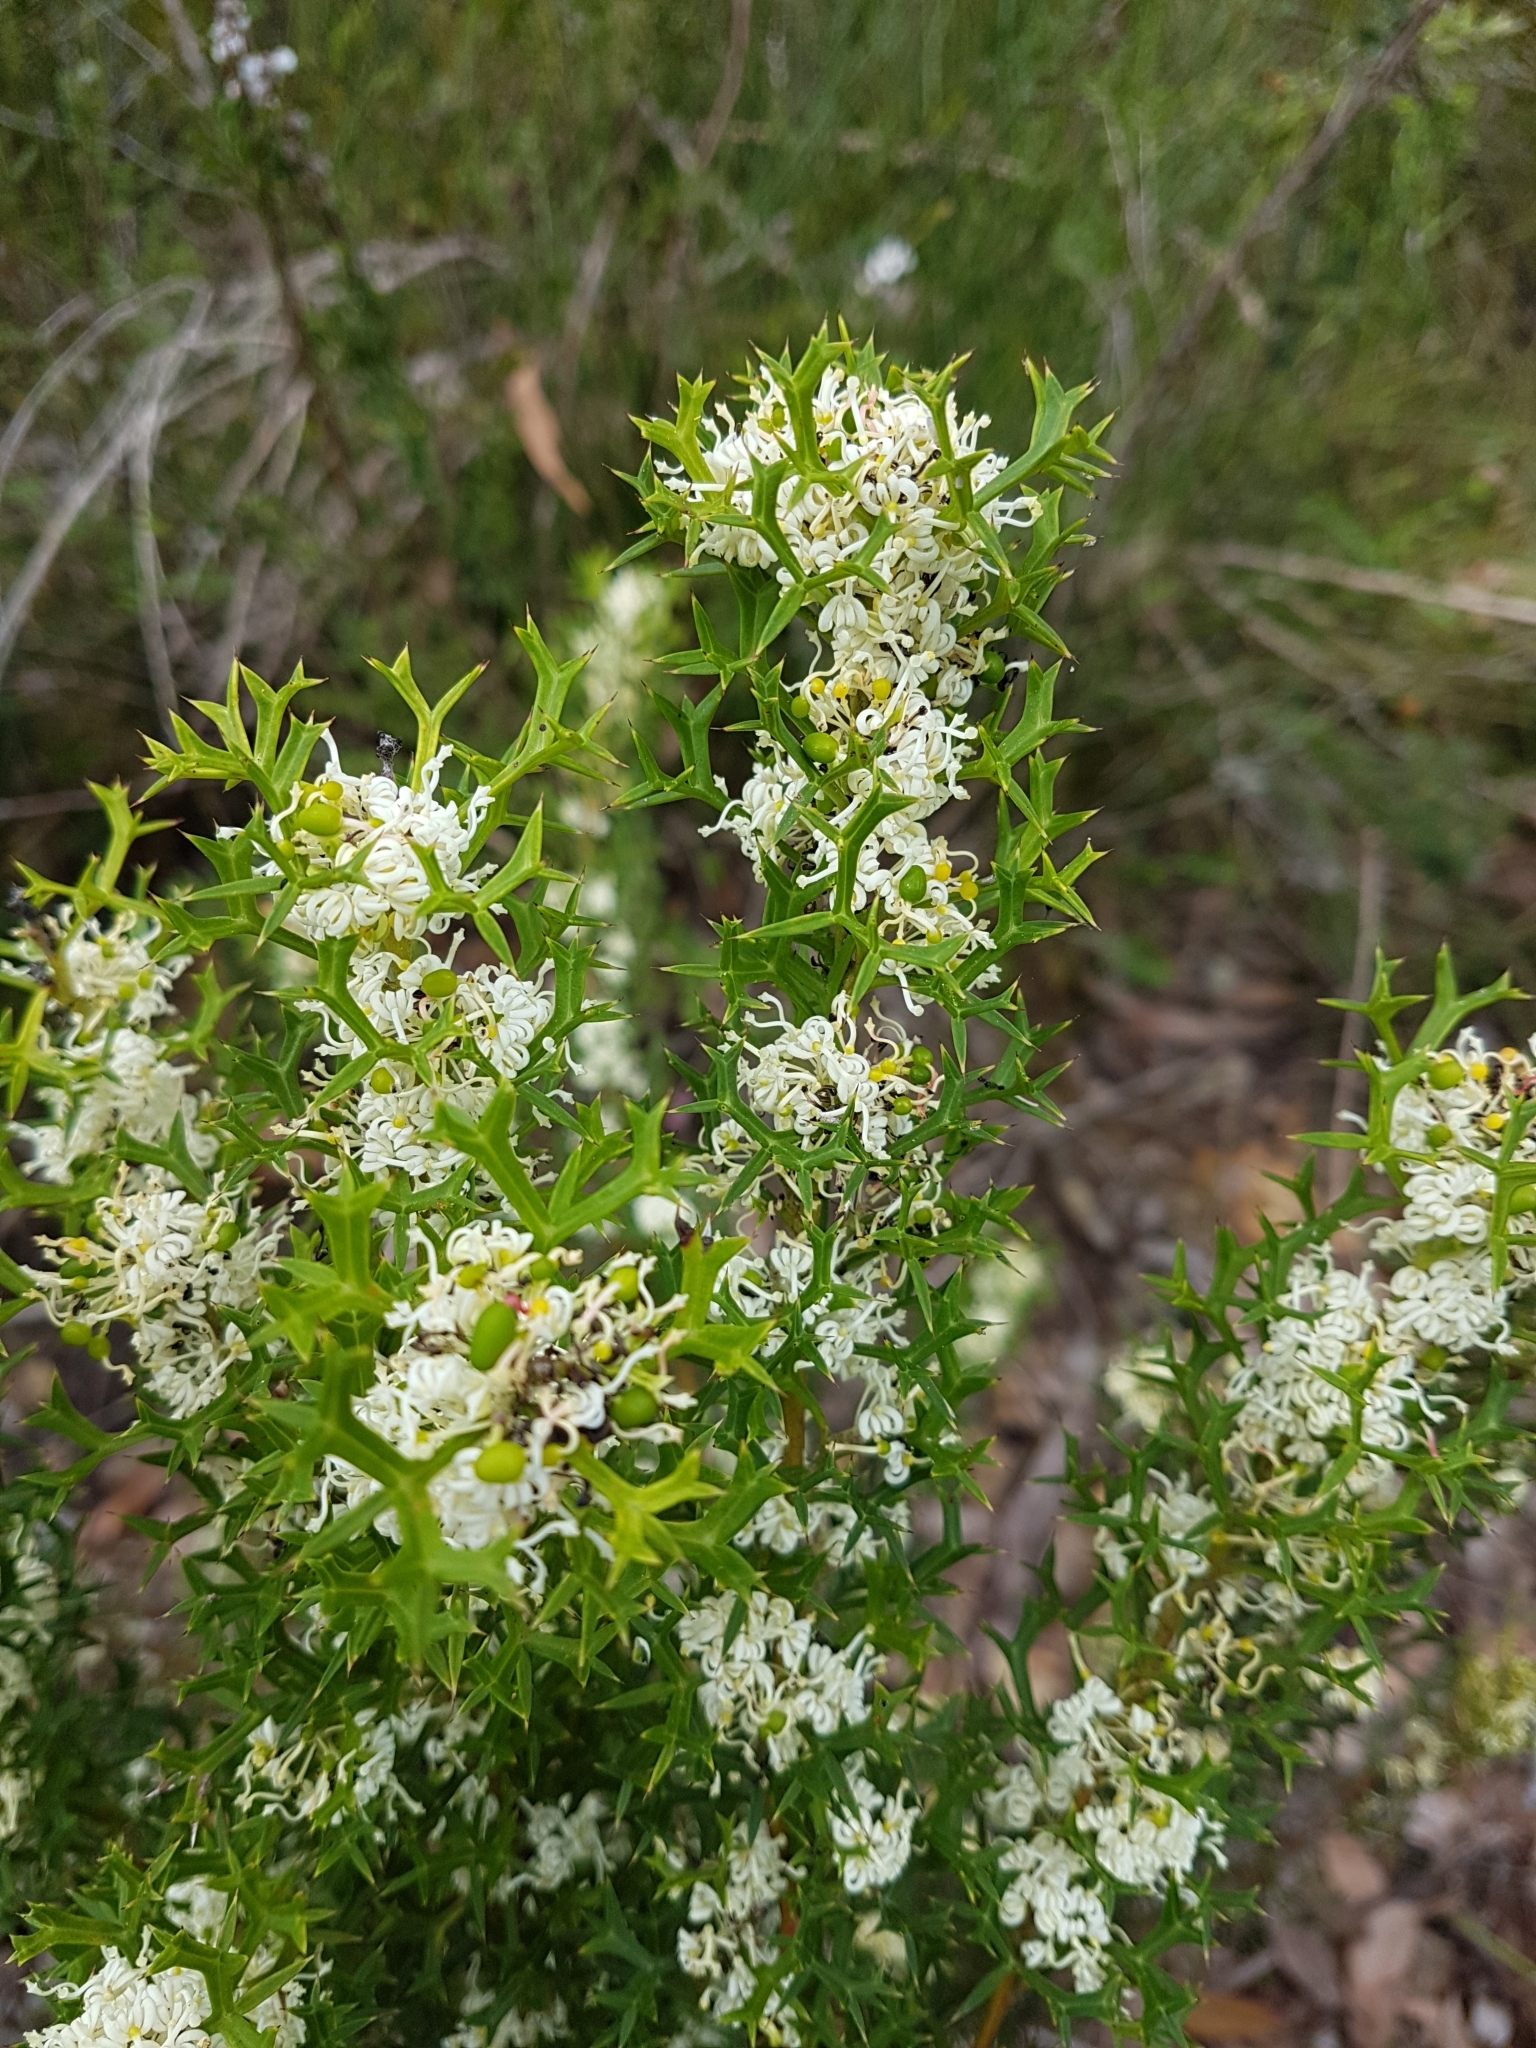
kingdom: Plantae
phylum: Tracheophyta
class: Magnoliopsida
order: Proteales
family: Proteaceae
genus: Grevillea
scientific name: Grevillea trifida
